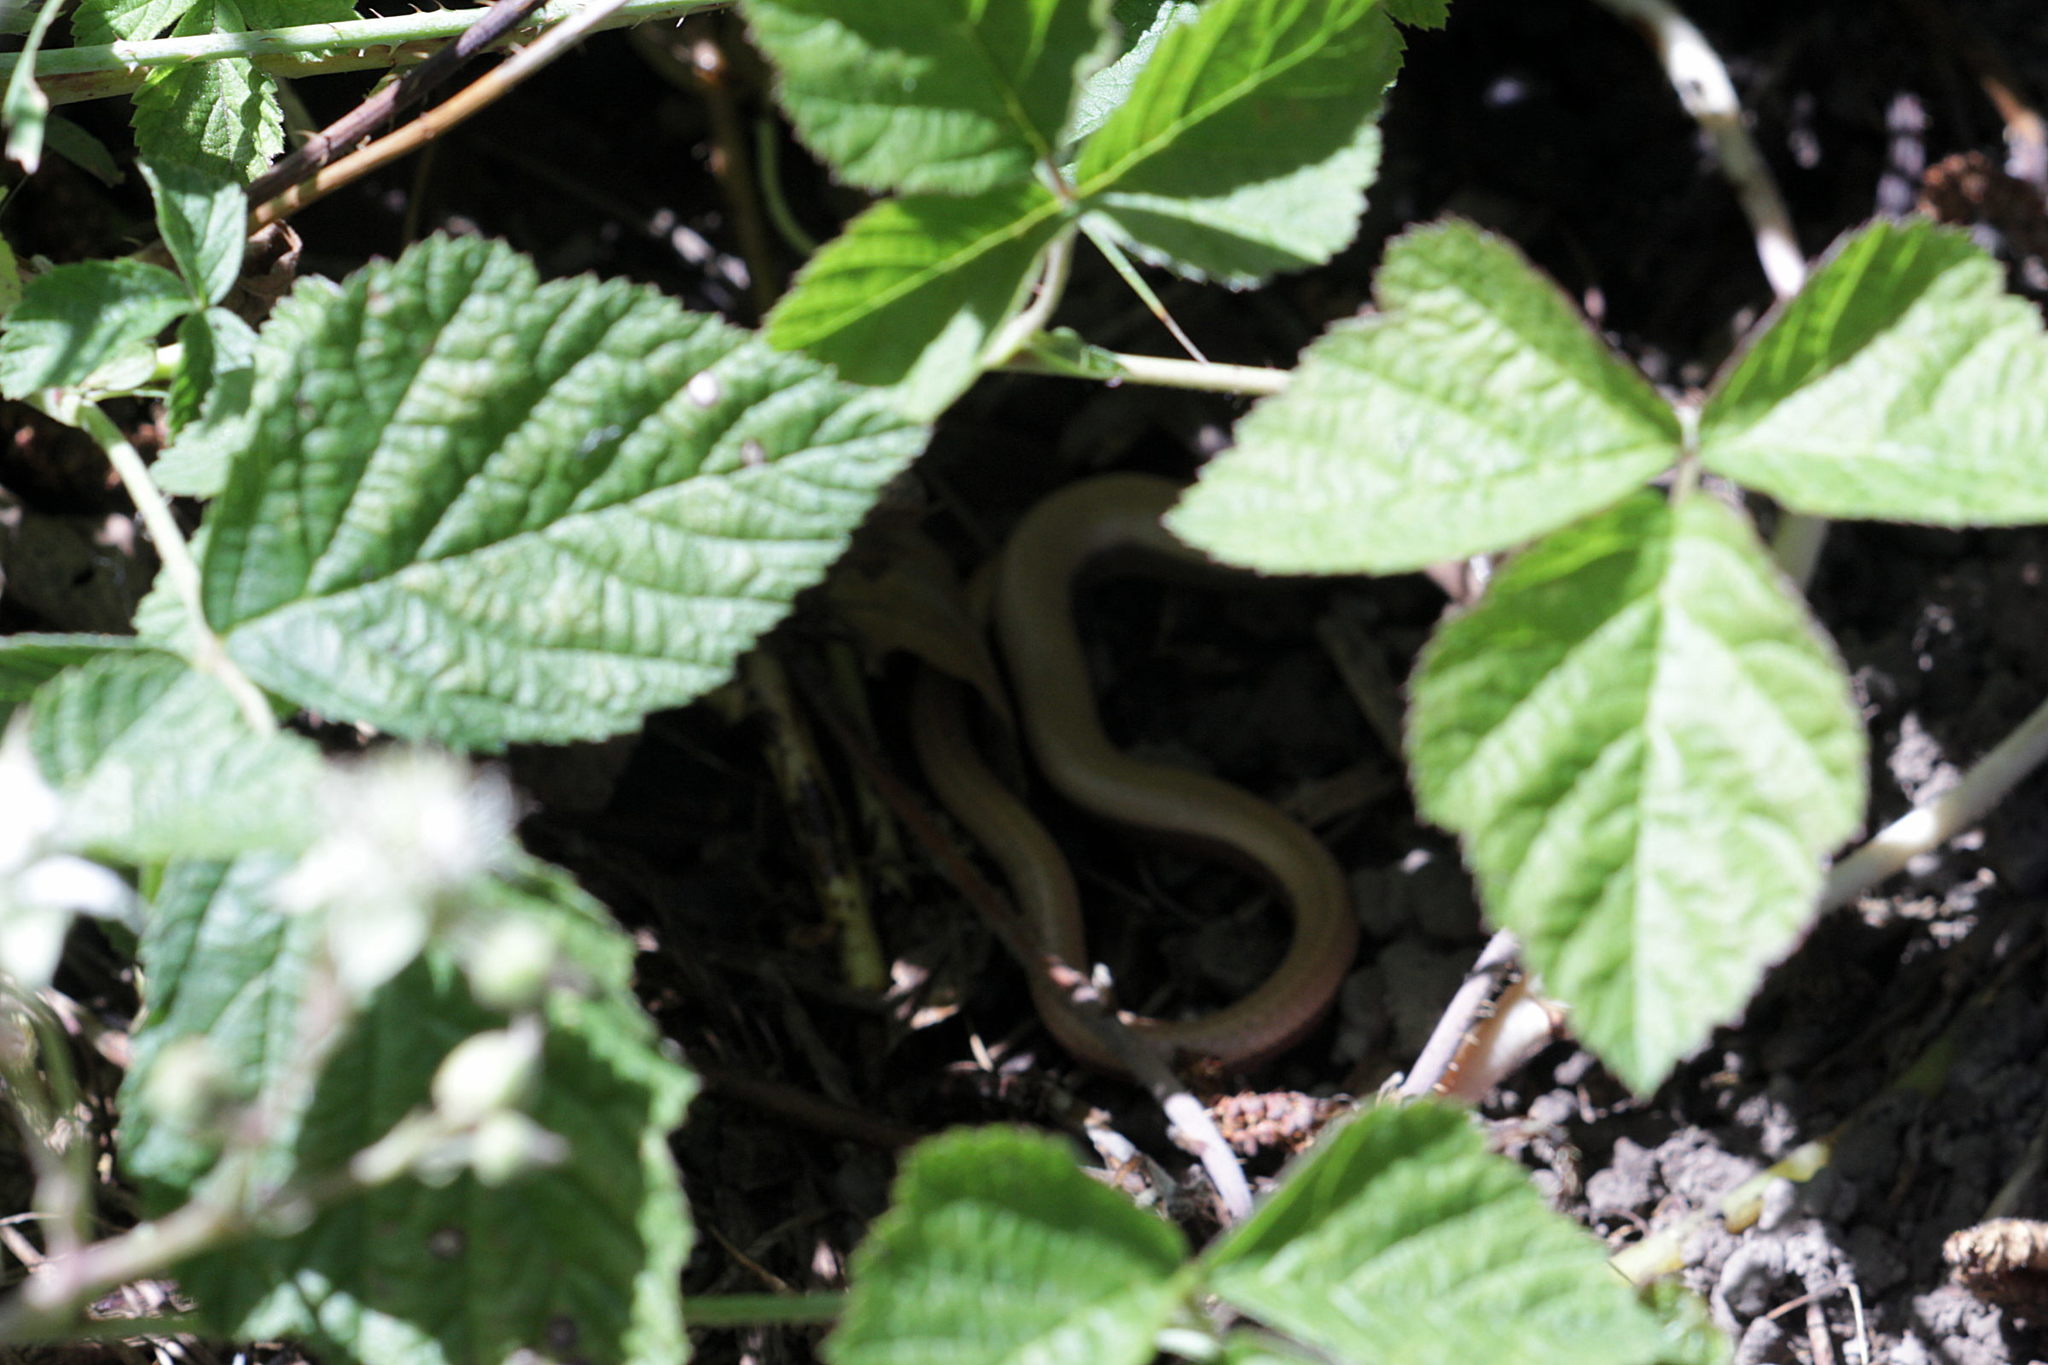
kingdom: Animalia
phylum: Chordata
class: Squamata
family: Anguidae
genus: Anguis
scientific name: Anguis fragilis
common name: Slow worm
